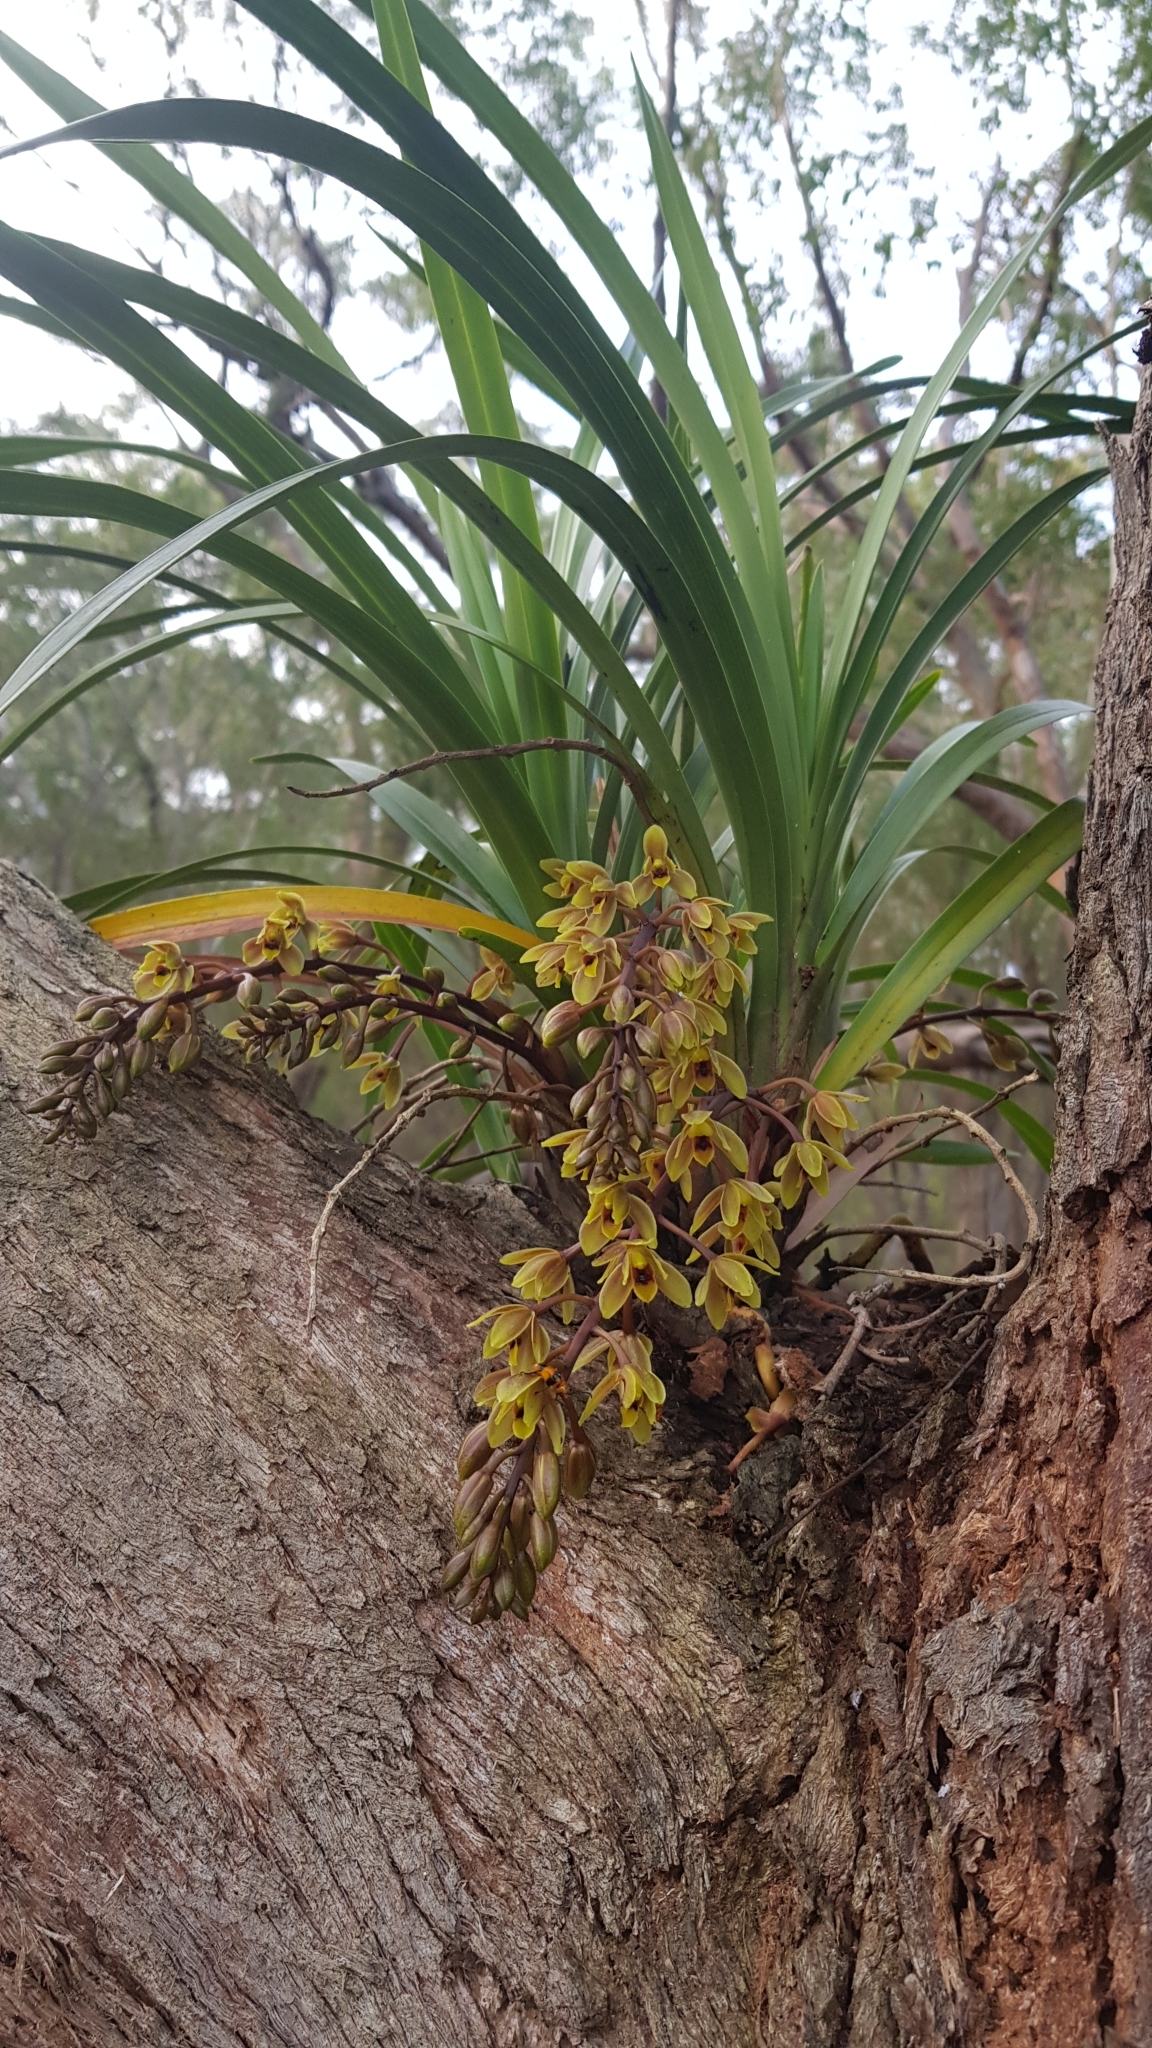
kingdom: Plantae
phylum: Tracheophyta
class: Liliopsida
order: Asparagales
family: Orchidaceae
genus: Cymbidium
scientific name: Cymbidium suave
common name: Snake orchid
